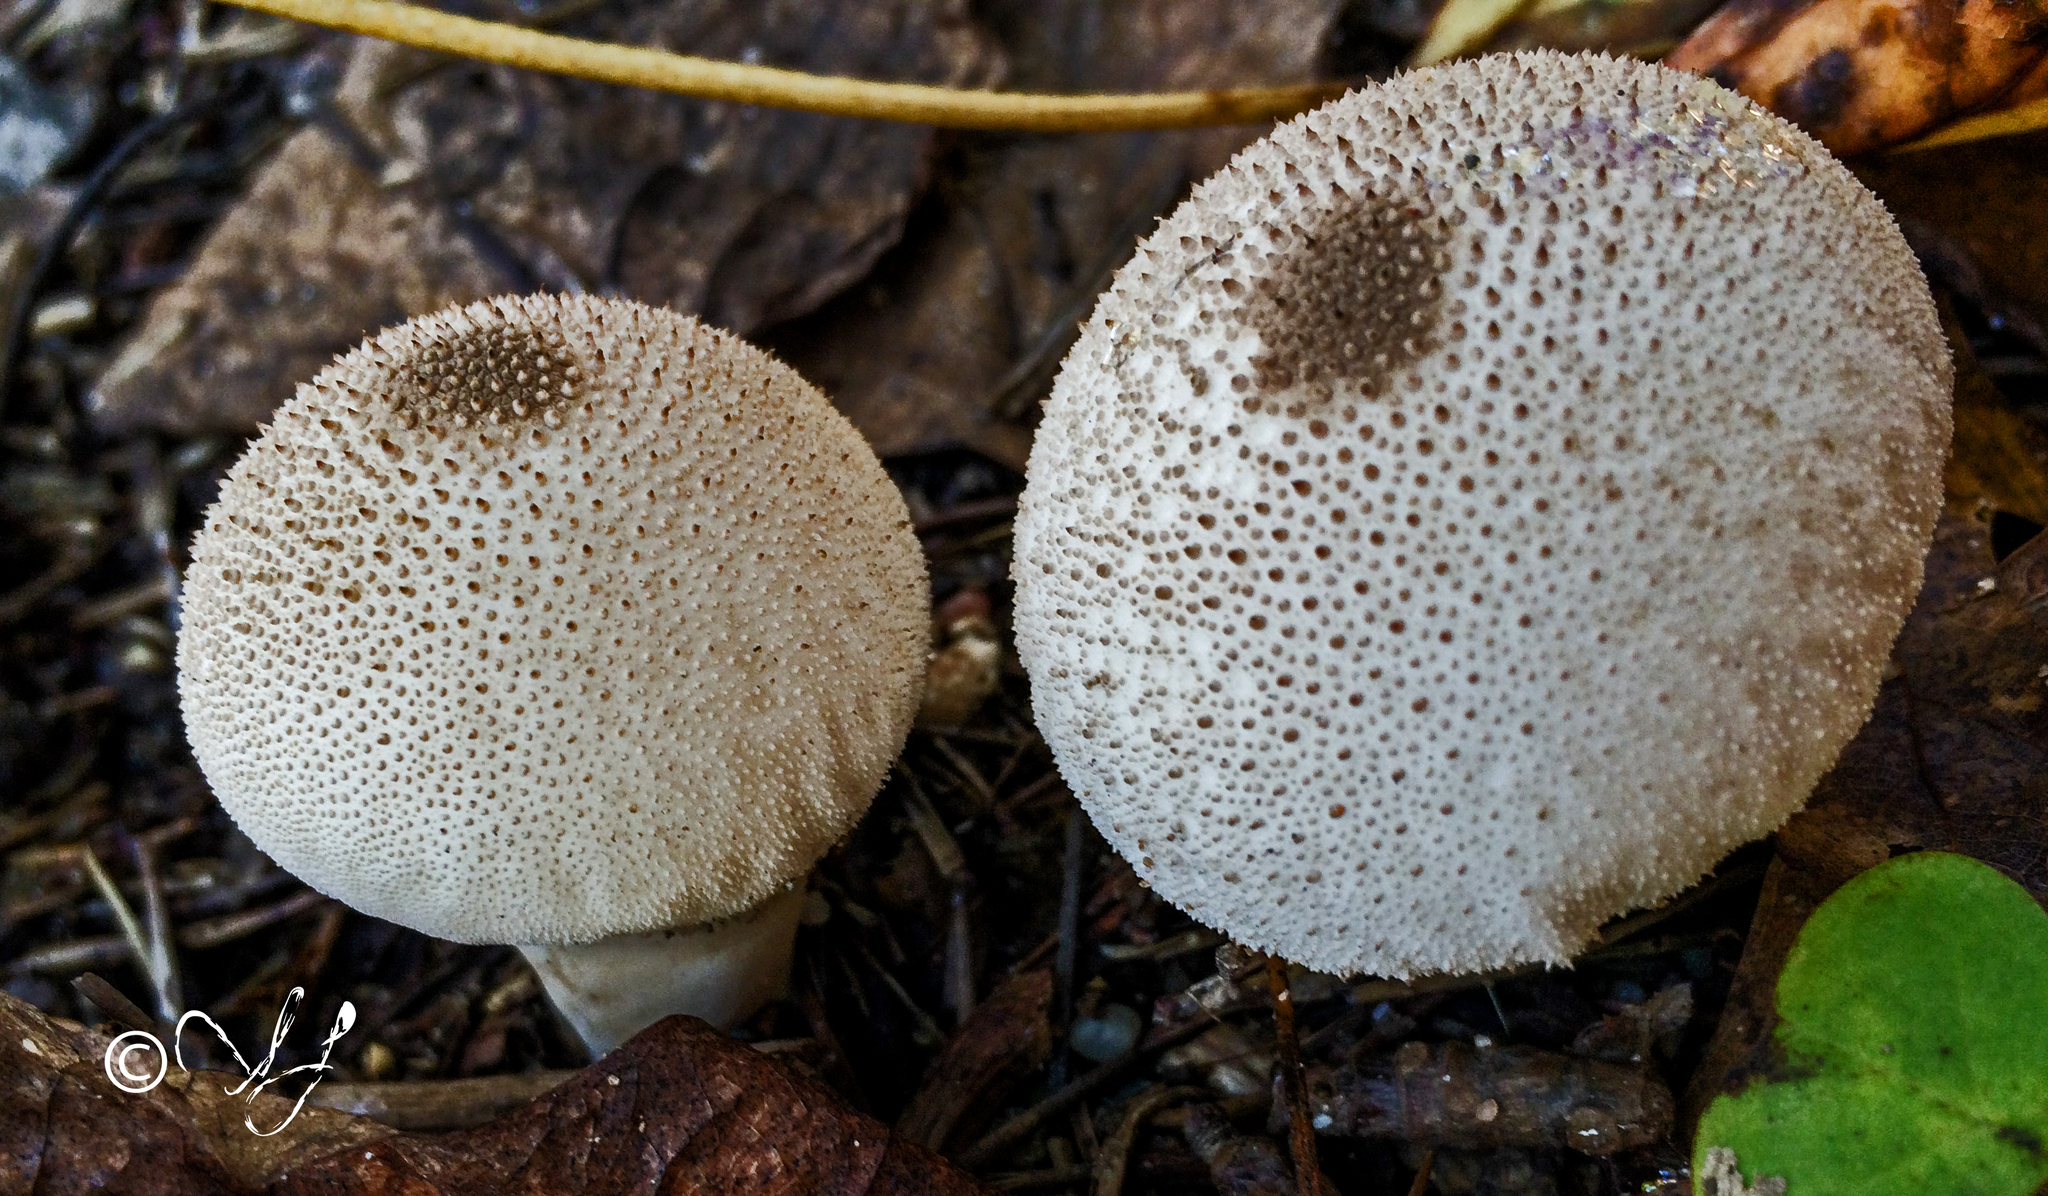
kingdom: Fungi
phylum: Basidiomycota
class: Agaricomycetes
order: Agaricales
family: Lycoperdaceae
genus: Lycoperdon
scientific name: Lycoperdon perlatum
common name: Common puffball
